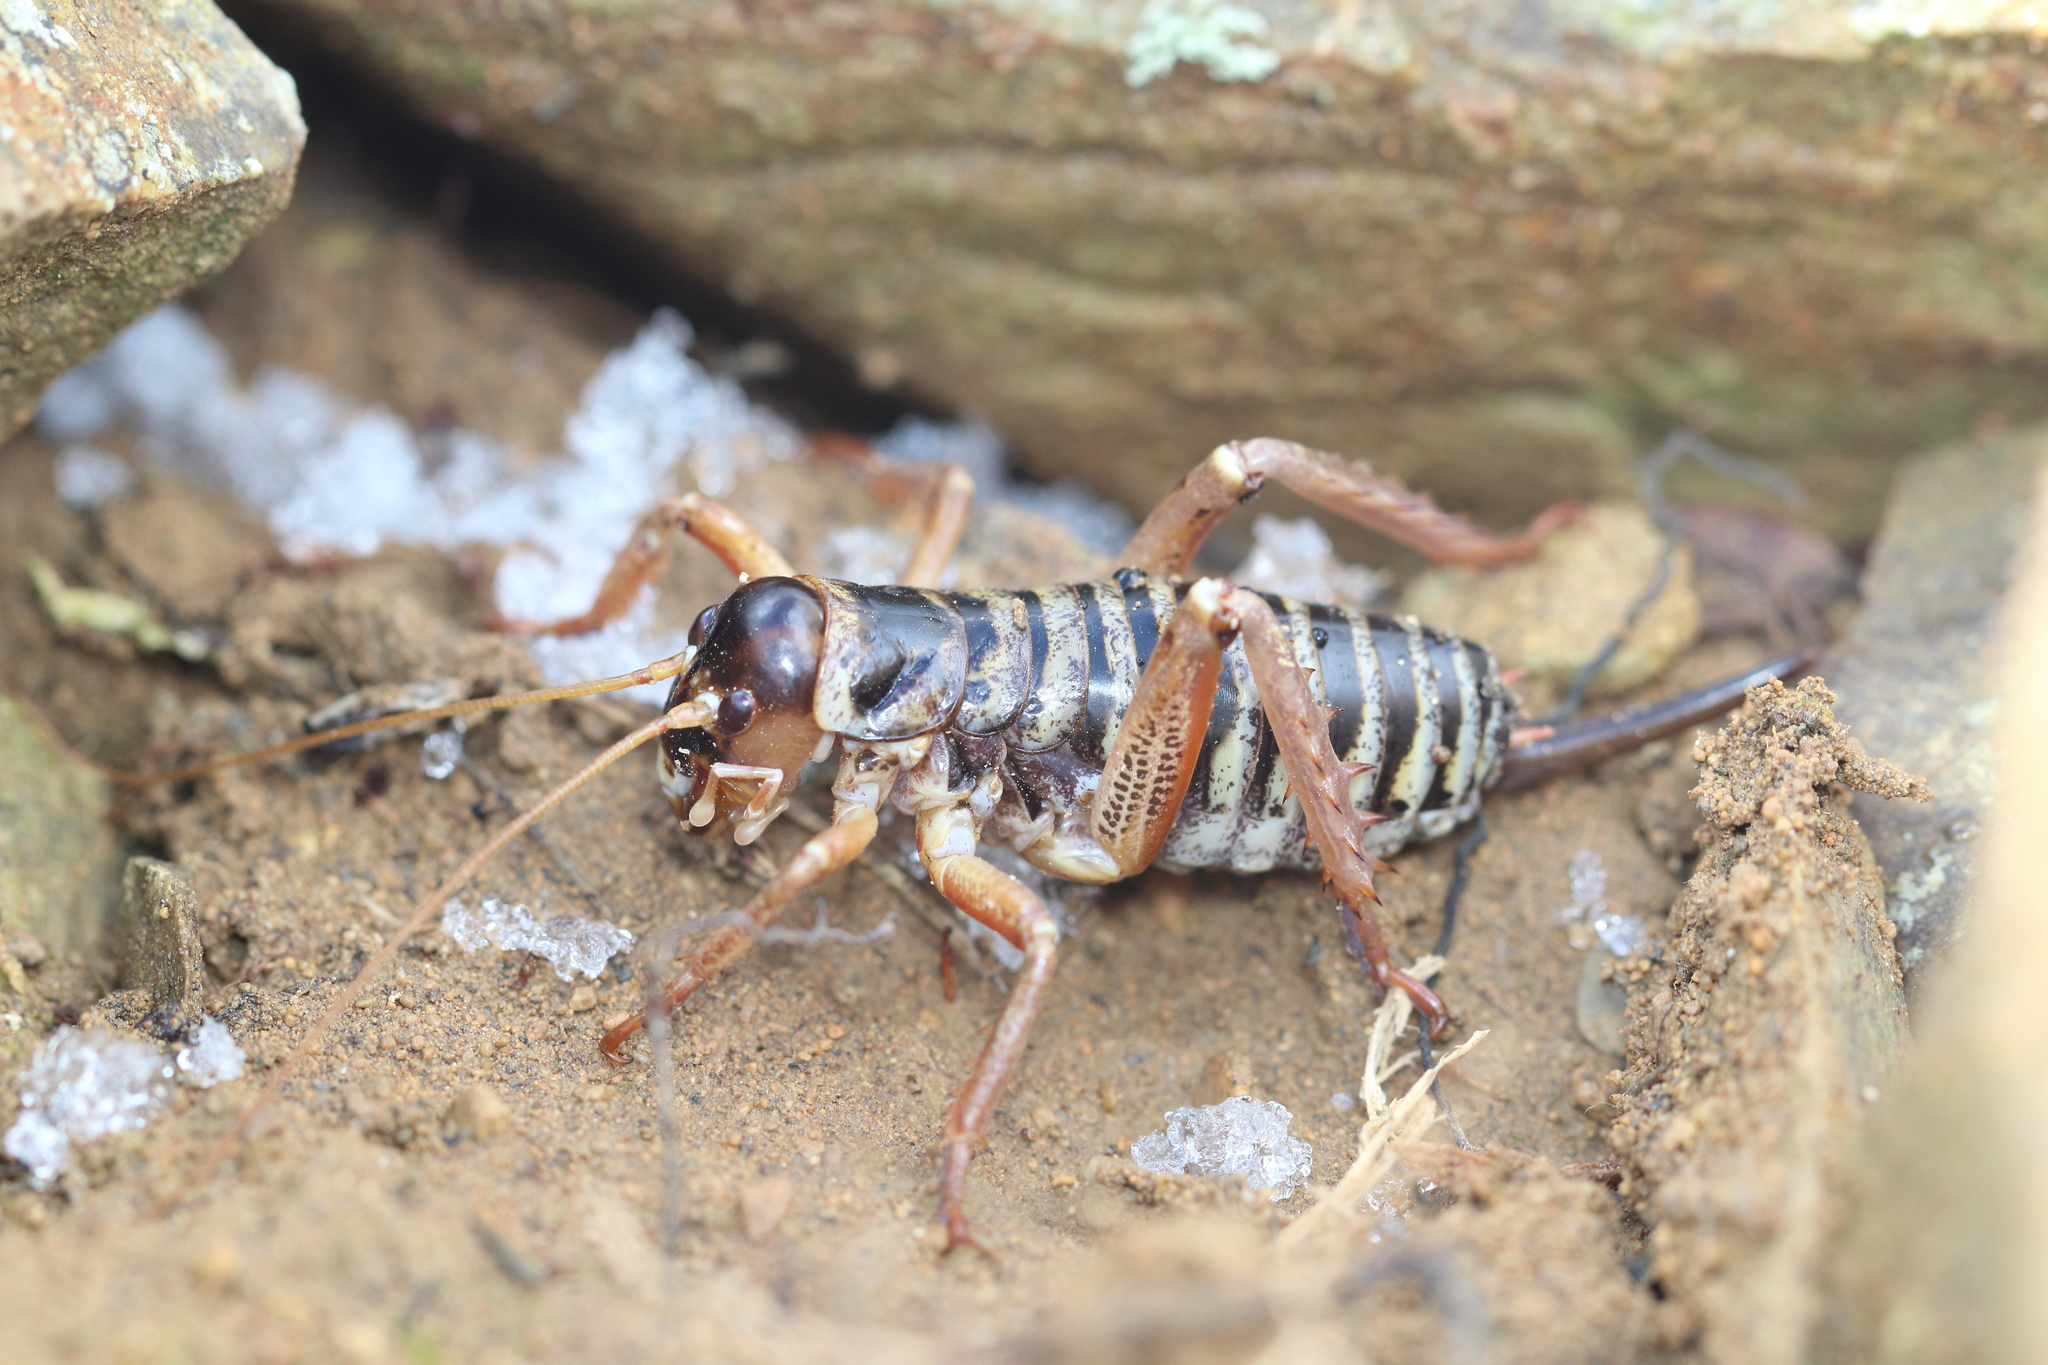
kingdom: Animalia
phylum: Arthropoda
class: Insecta
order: Orthoptera
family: Anostostomatidae
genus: Hemideina
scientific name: Hemideina maori
